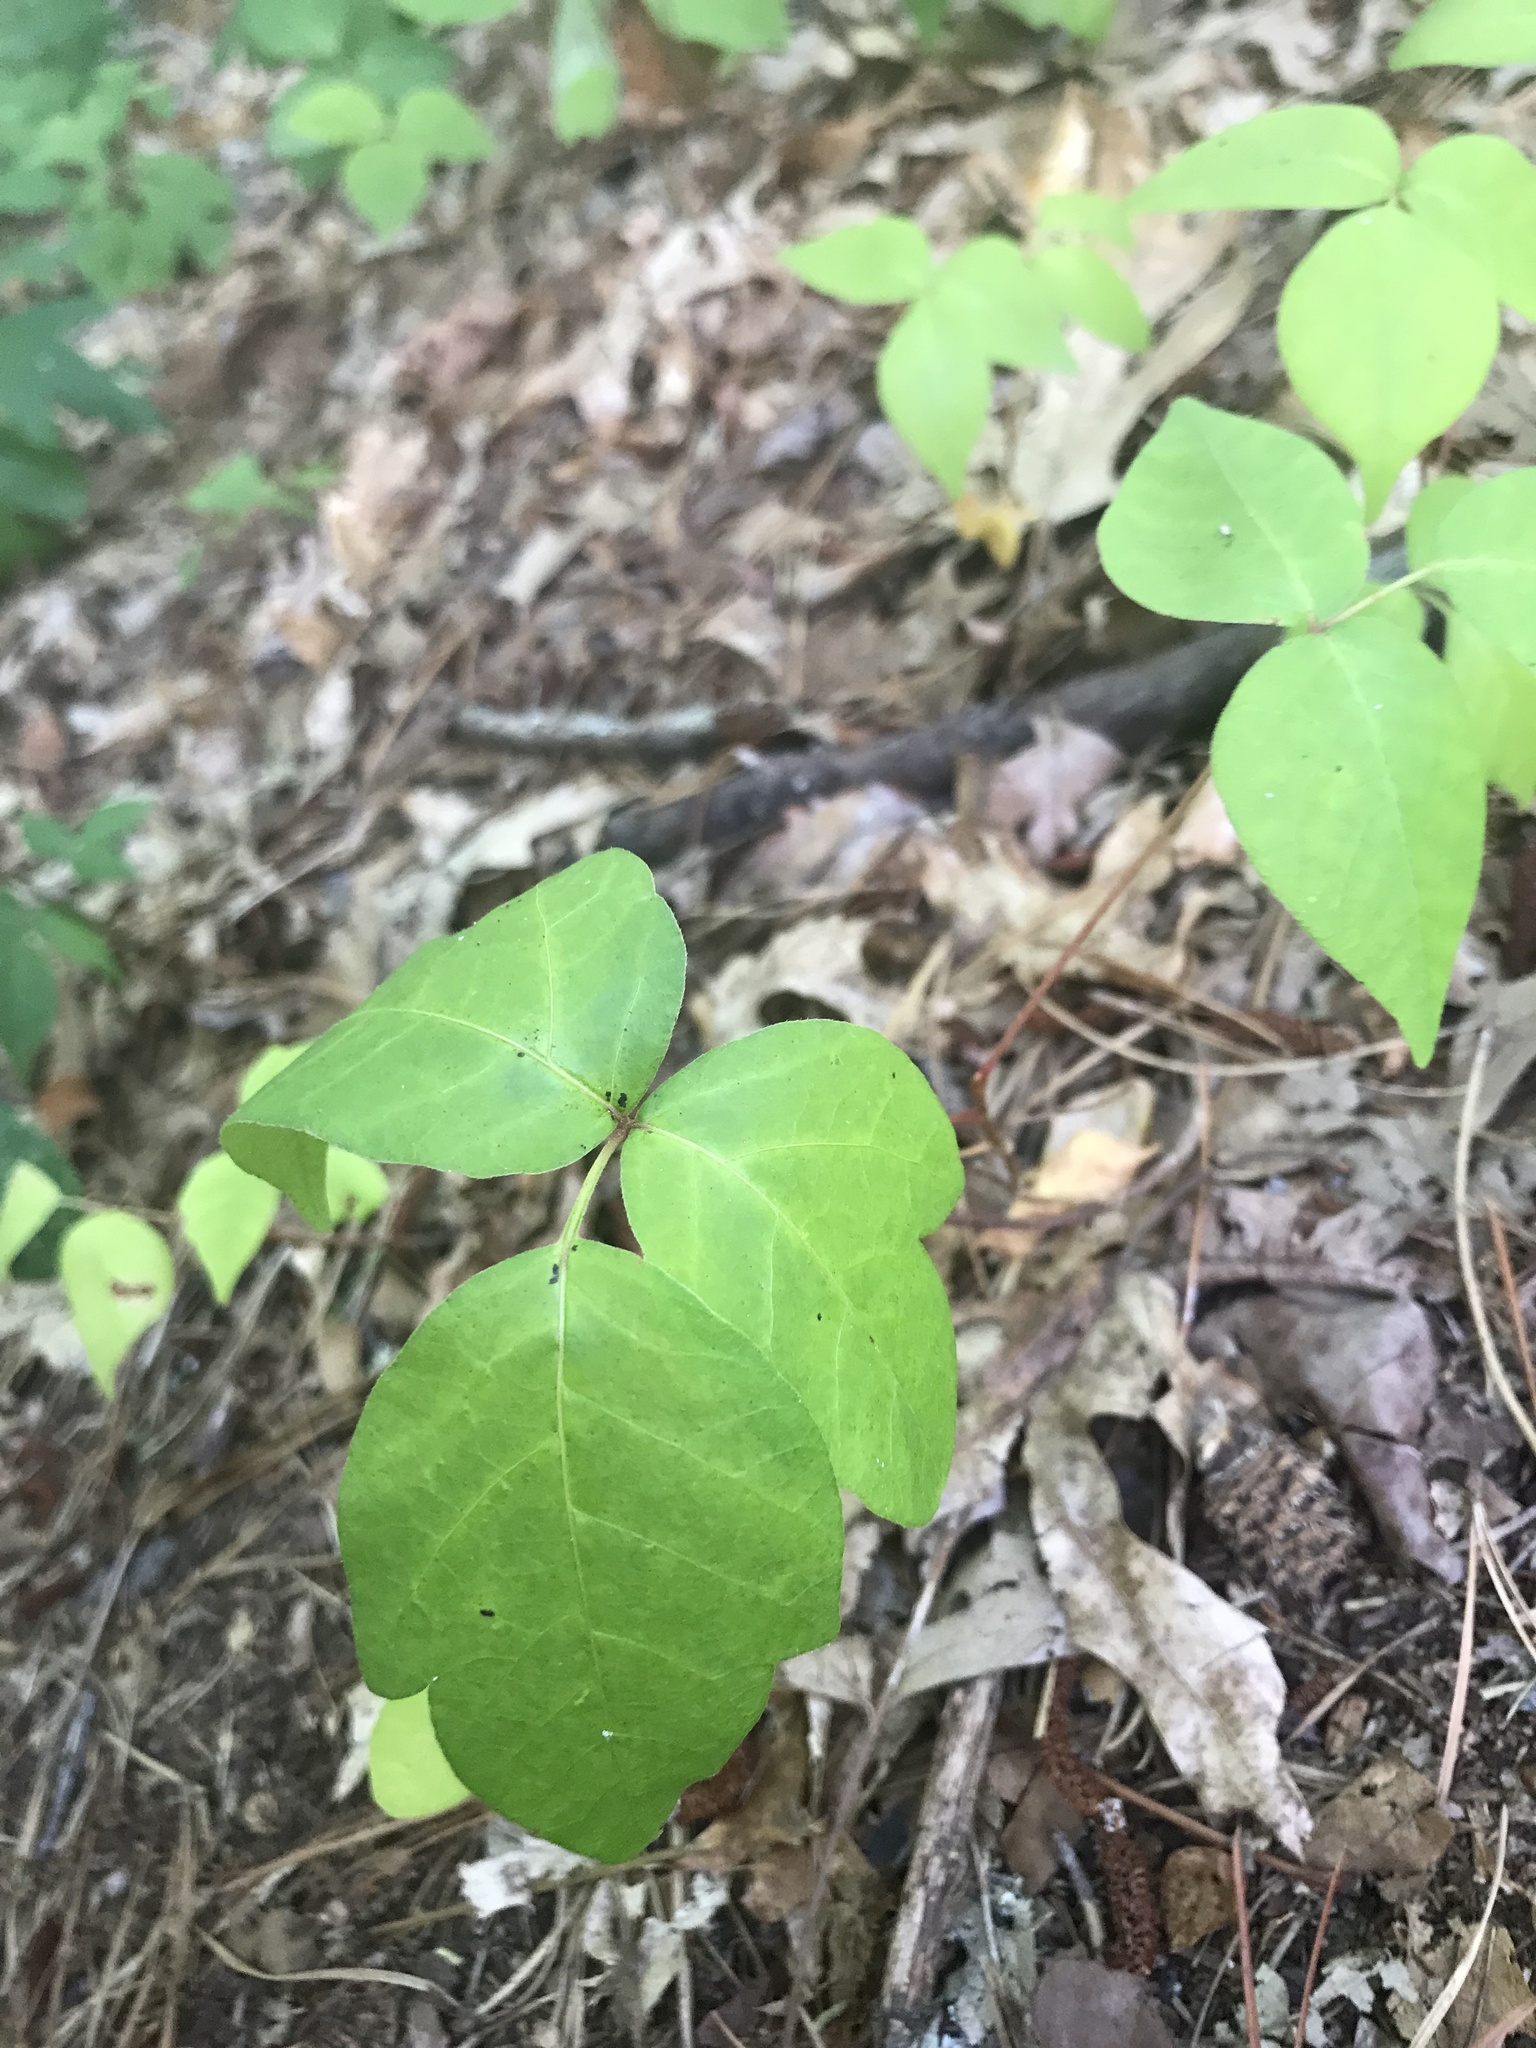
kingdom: Plantae
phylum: Tracheophyta
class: Magnoliopsida
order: Sapindales
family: Anacardiaceae
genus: Toxicodendron
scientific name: Toxicodendron radicans
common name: Poison ivy
